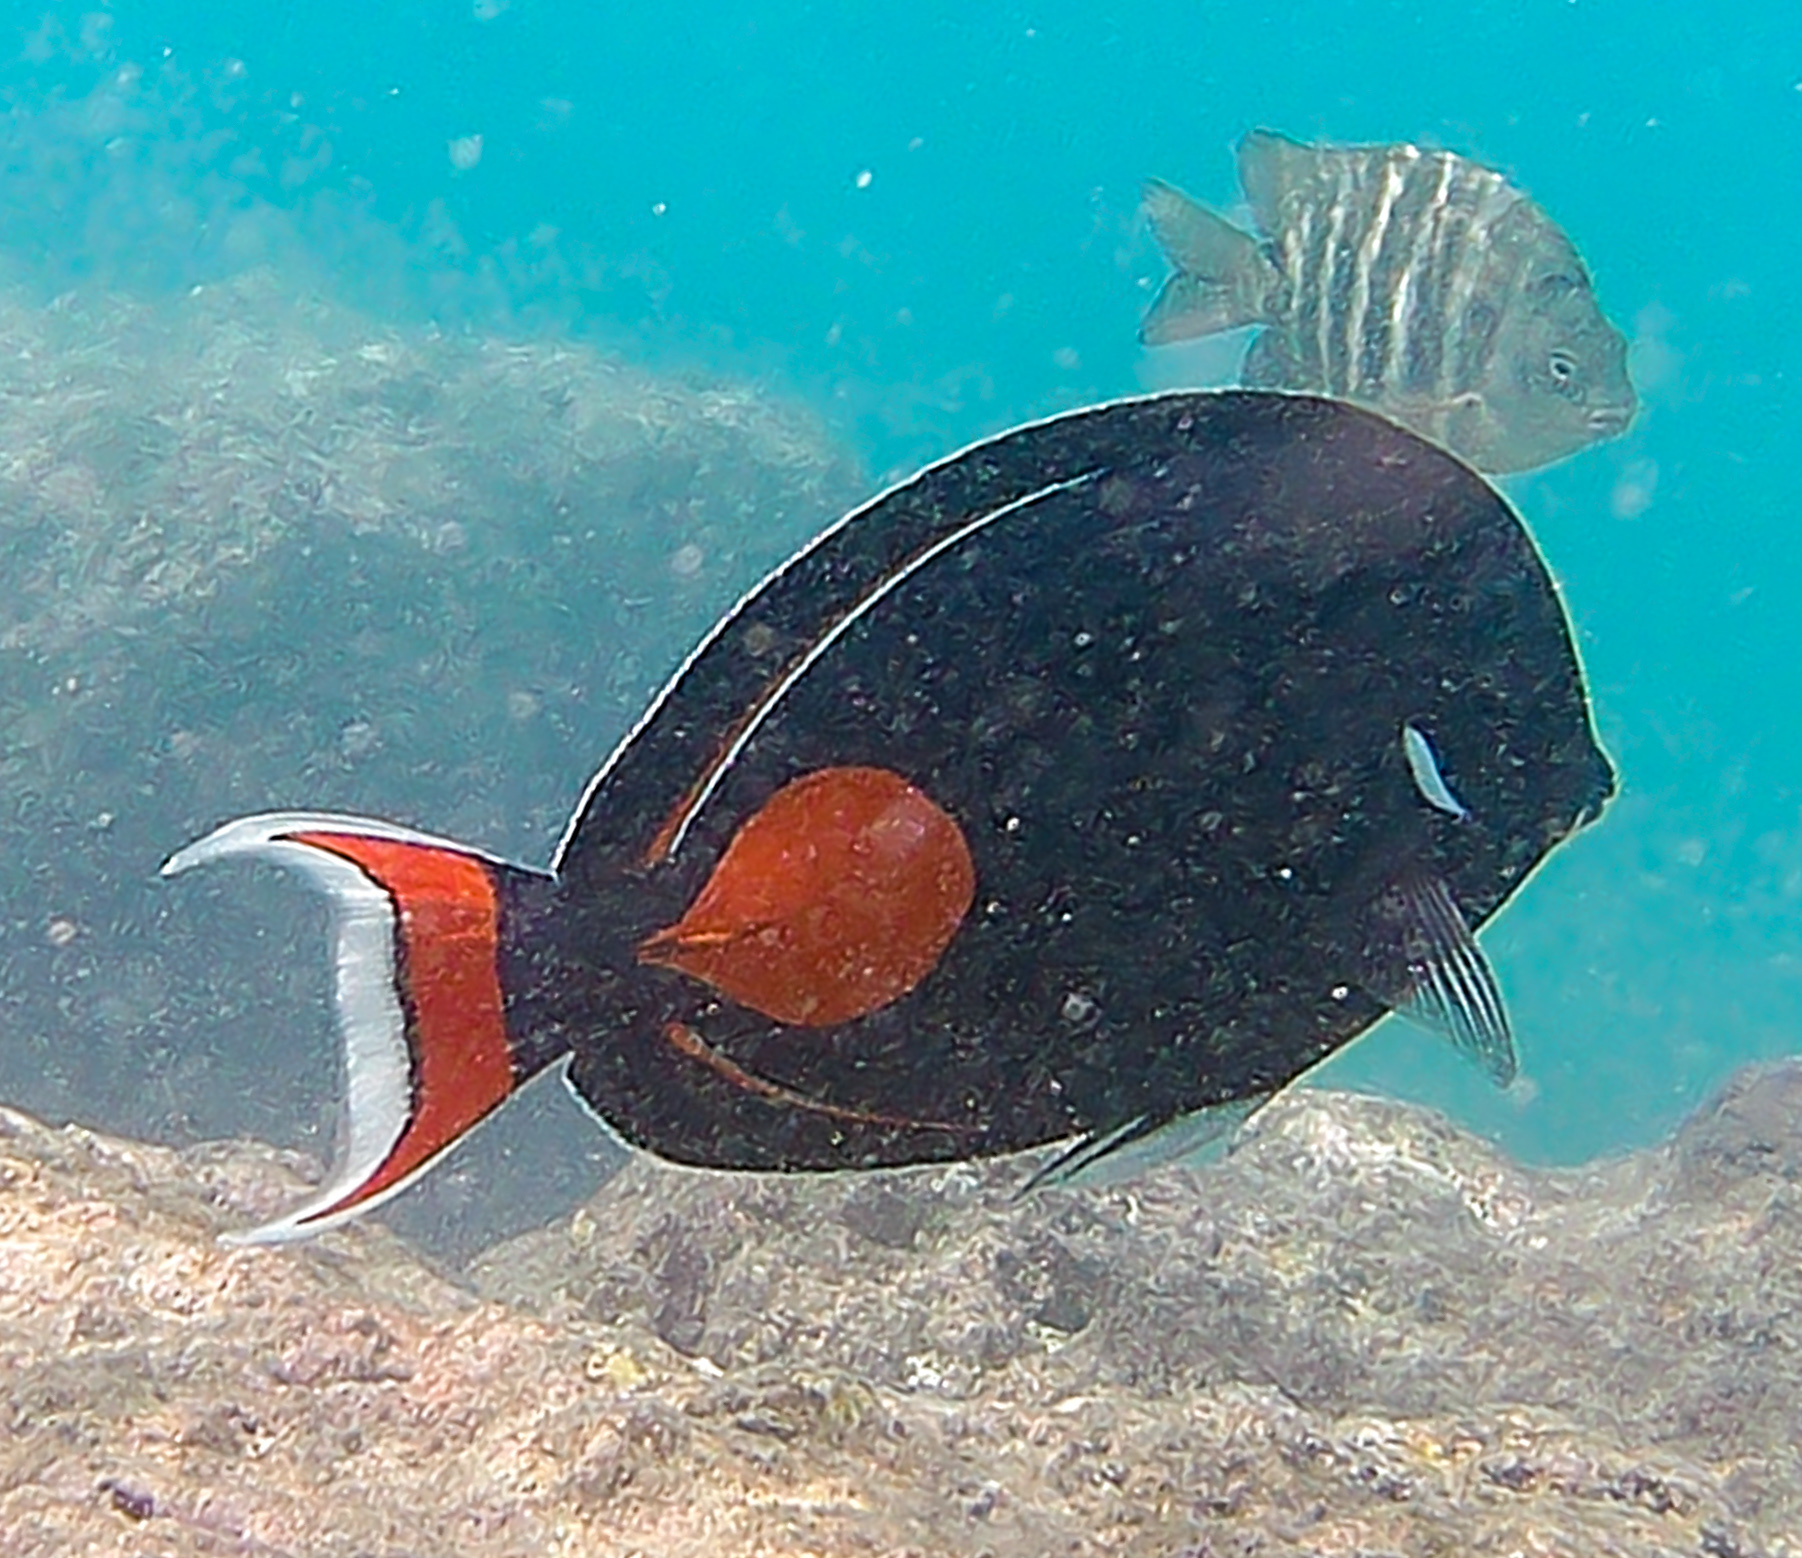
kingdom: Animalia
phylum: Chordata
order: Perciformes
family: Acanthuridae
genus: Acanthurus
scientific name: Acanthurus achilles
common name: Achilles tang
